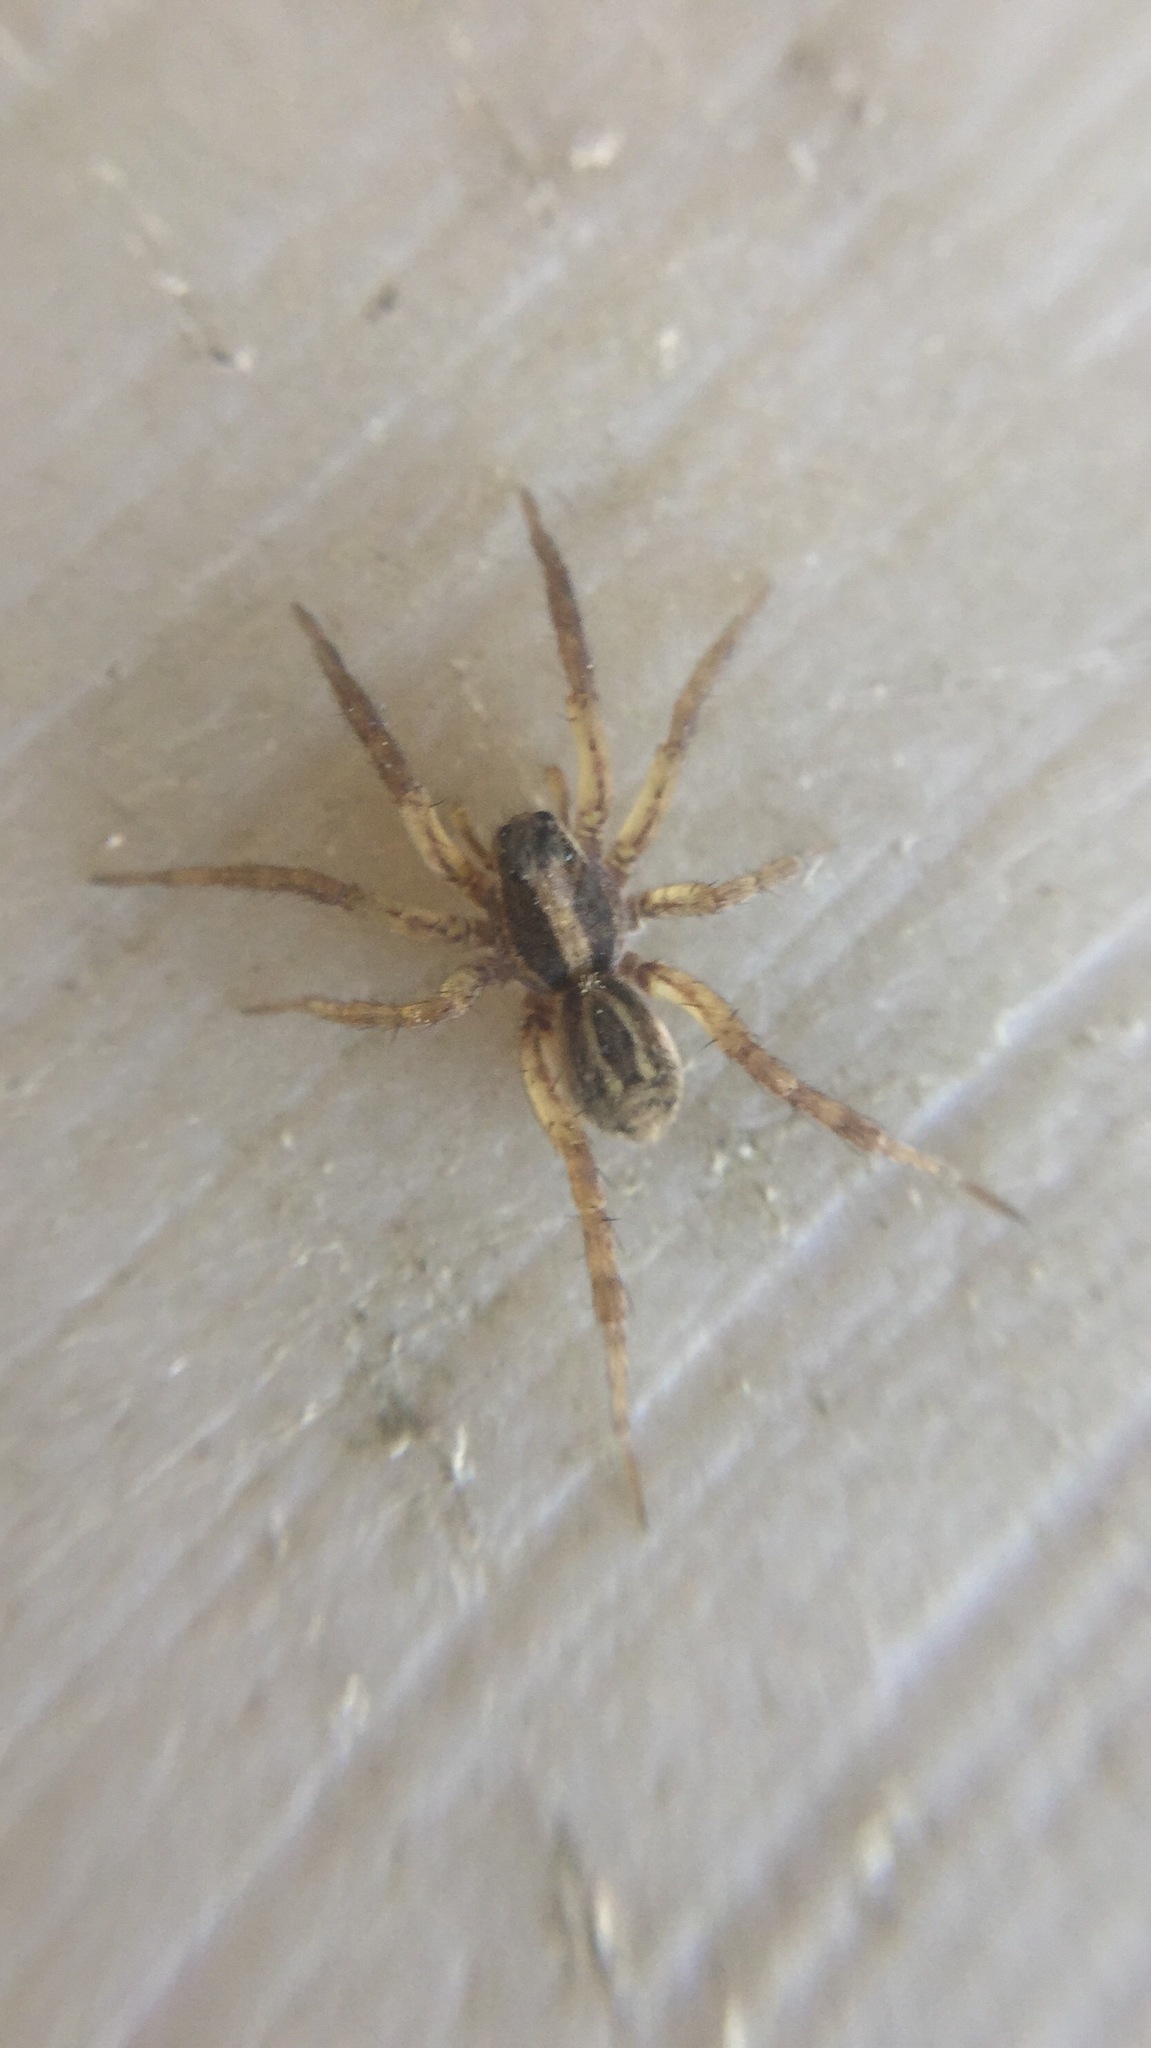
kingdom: Animalia
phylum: Arthropoda
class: Arachnida
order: Araneae
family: Lycosidae
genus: Schizocosa
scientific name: Schizocosa avida
